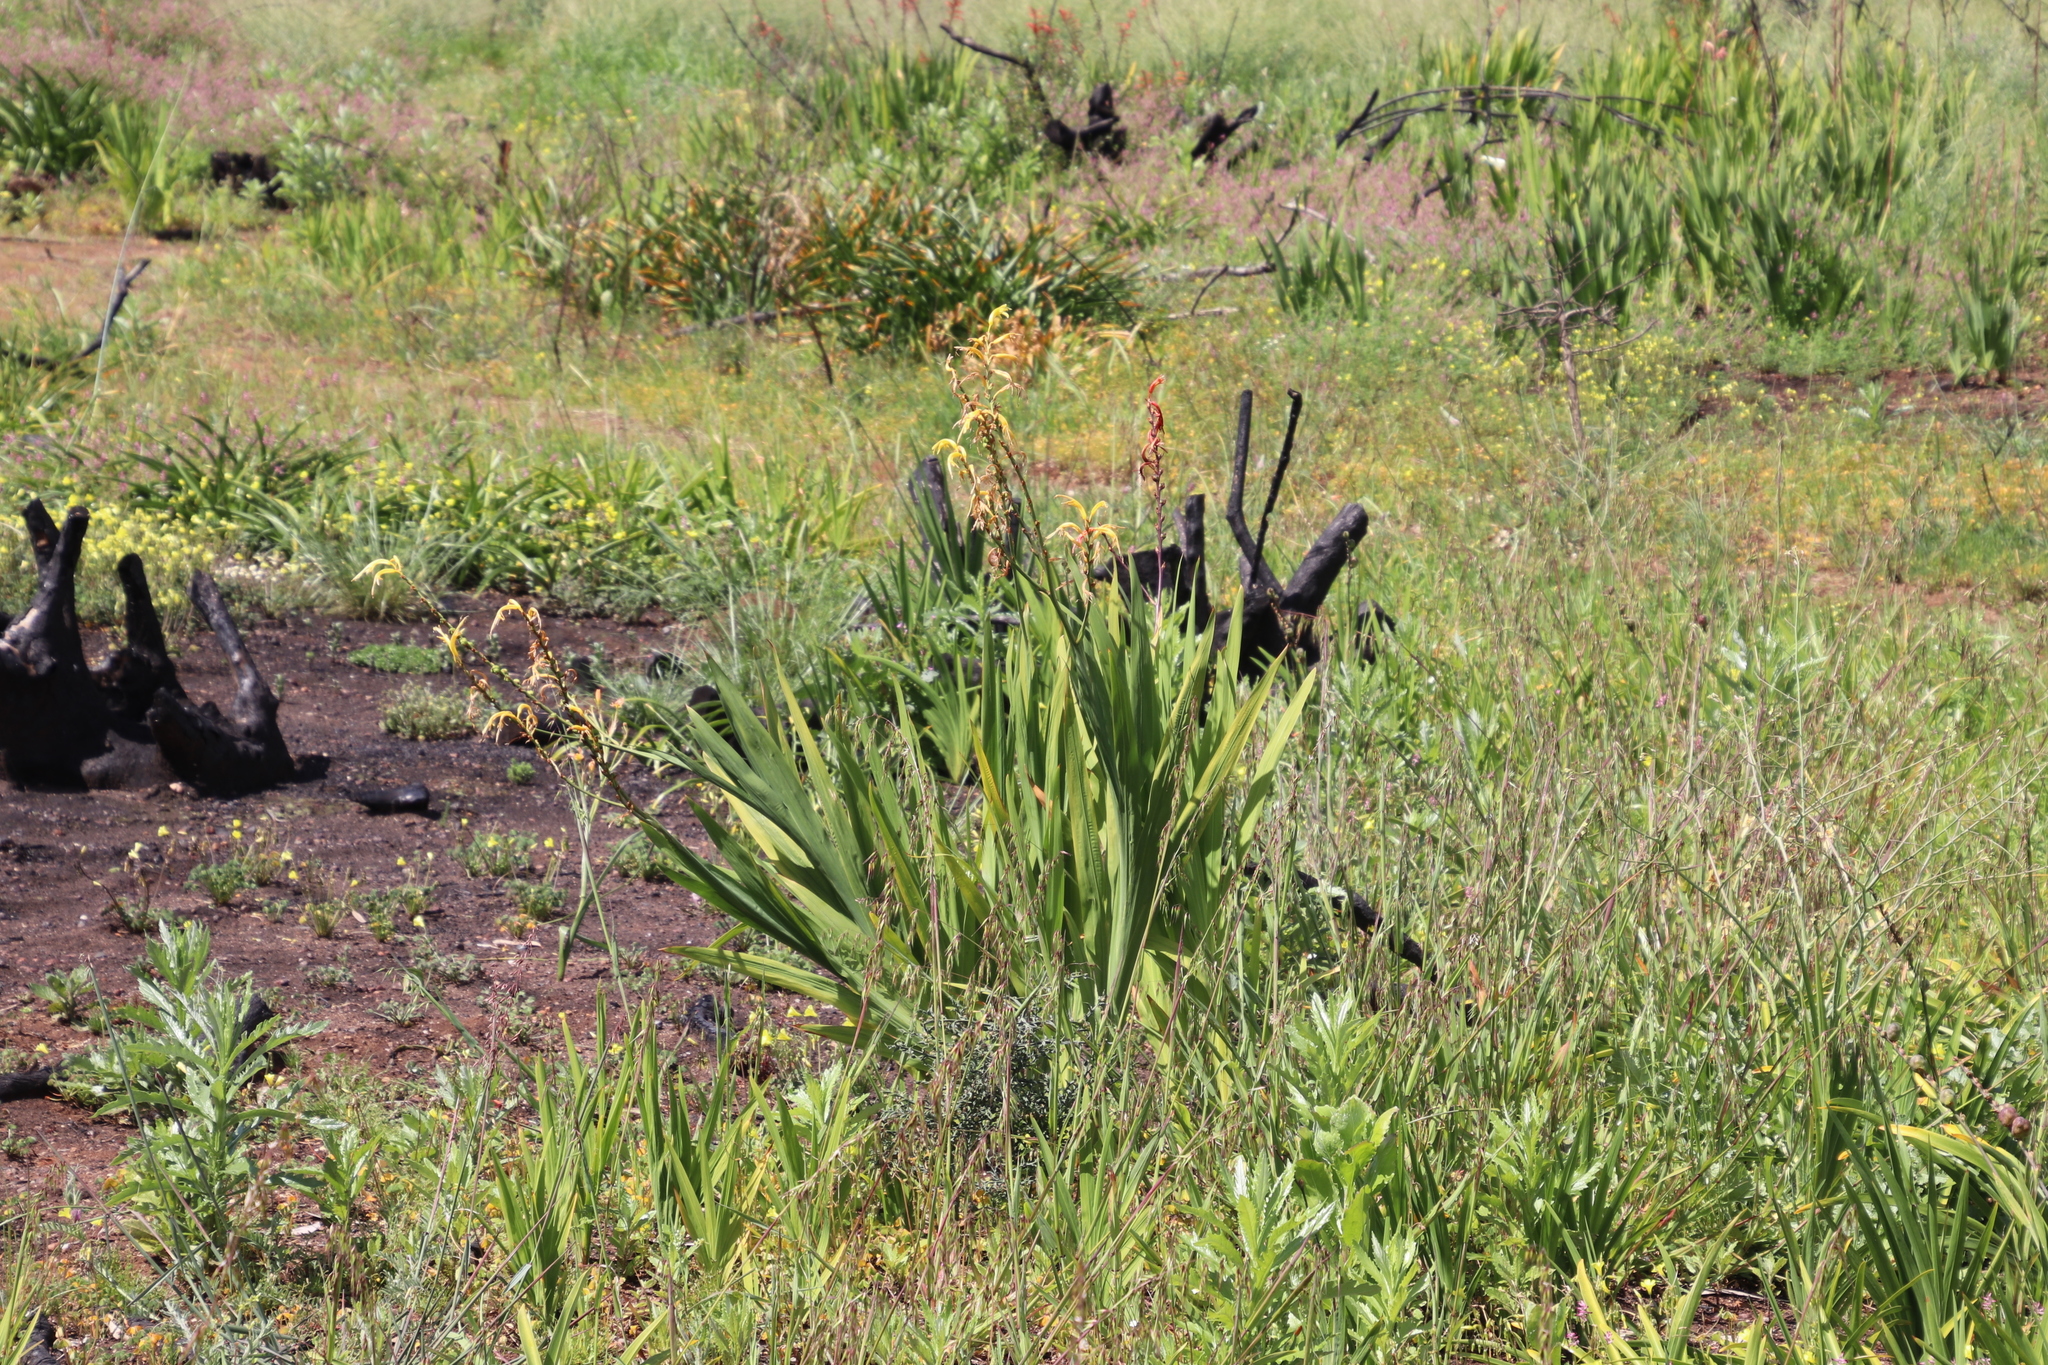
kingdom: Plantae
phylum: Tracheophyta
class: Liliopsida
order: Asparagales
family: Iridaceae
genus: Chasmanthe
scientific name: Chasmanthe floribunda
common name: African cornflag
